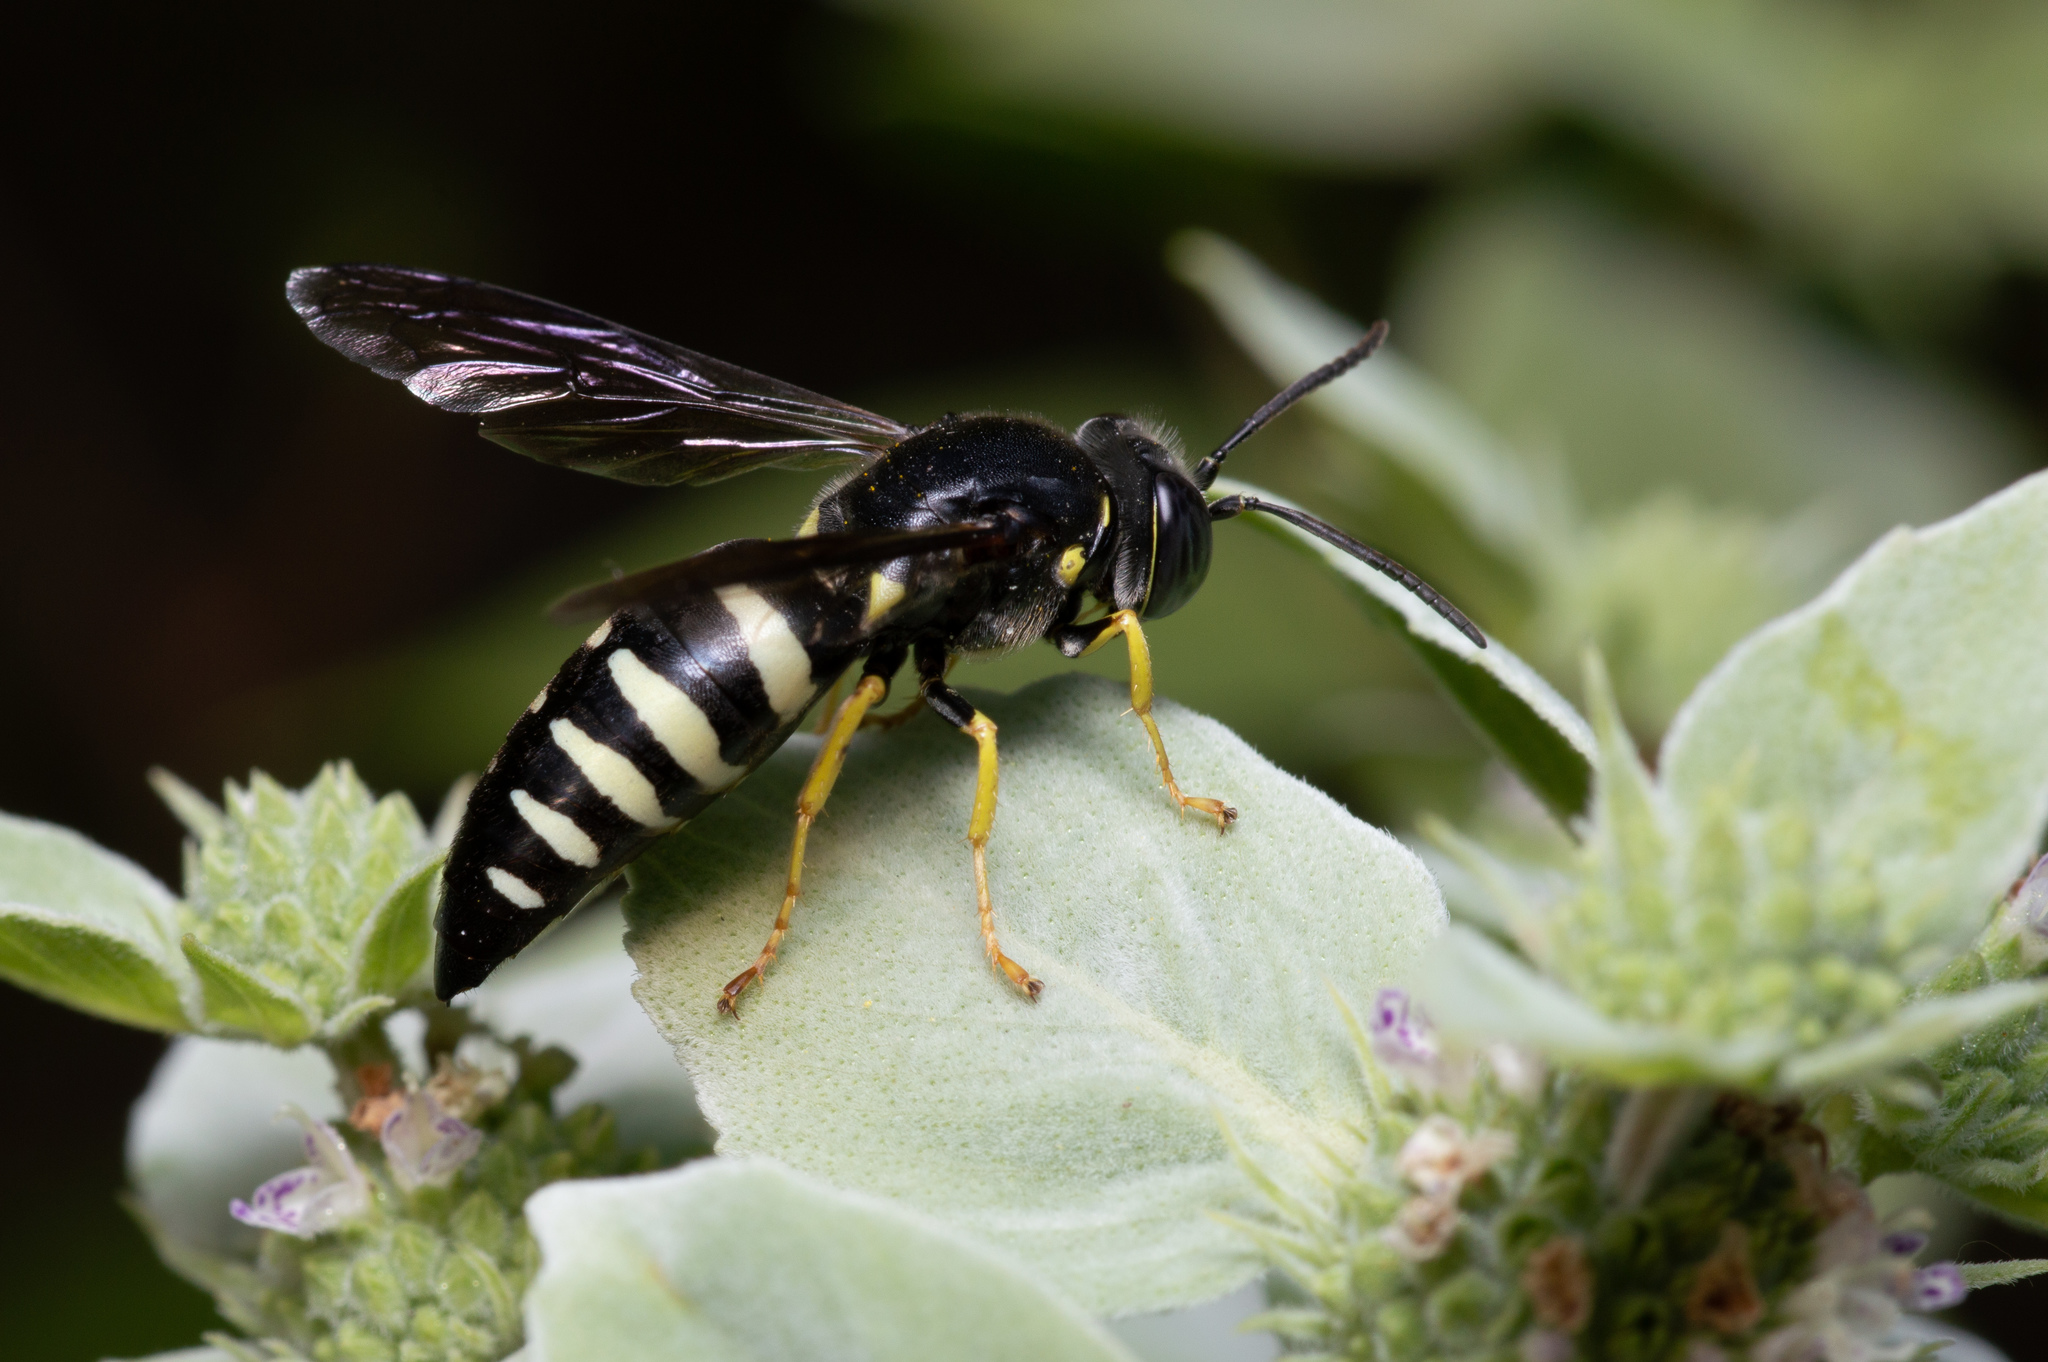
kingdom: Animalia
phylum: Arthropoda
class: Insecta
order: Hymenoptera
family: Crabronidae
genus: Bicyrtes
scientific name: Bicyrtes quadrifasciatus
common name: Four-banded stink bug hunter wasp
